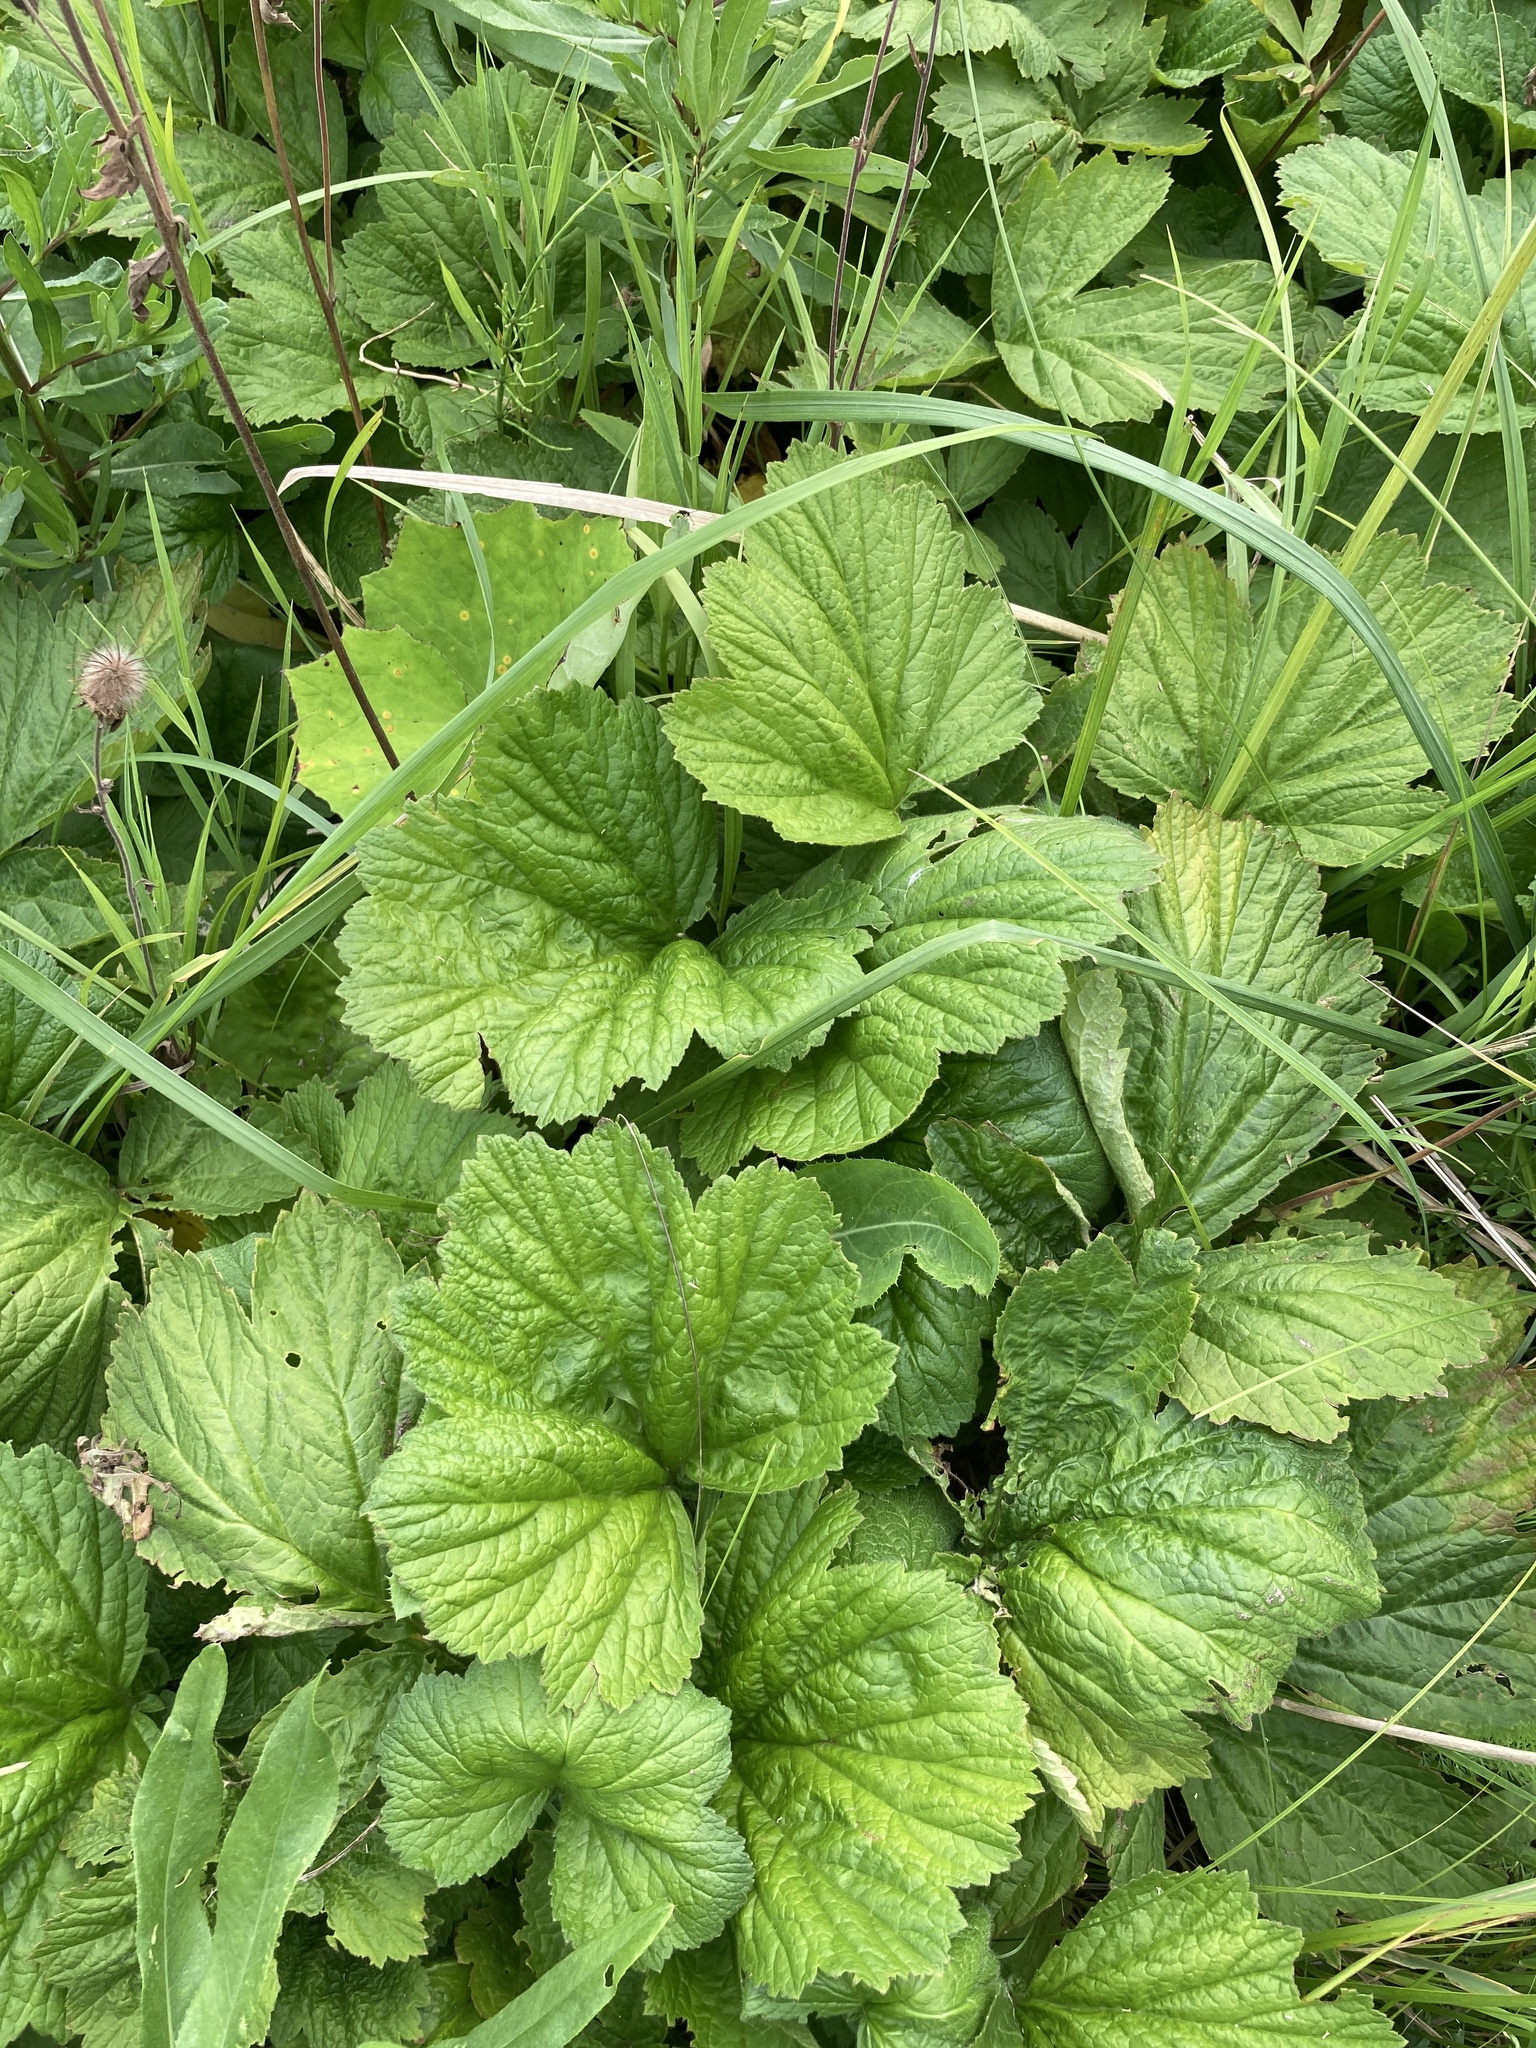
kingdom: Plantae
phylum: Tracheophyta
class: Magnoliopsida
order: Rosales
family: Rosaceae
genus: Geum
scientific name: Geum rivale
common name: Water avens
